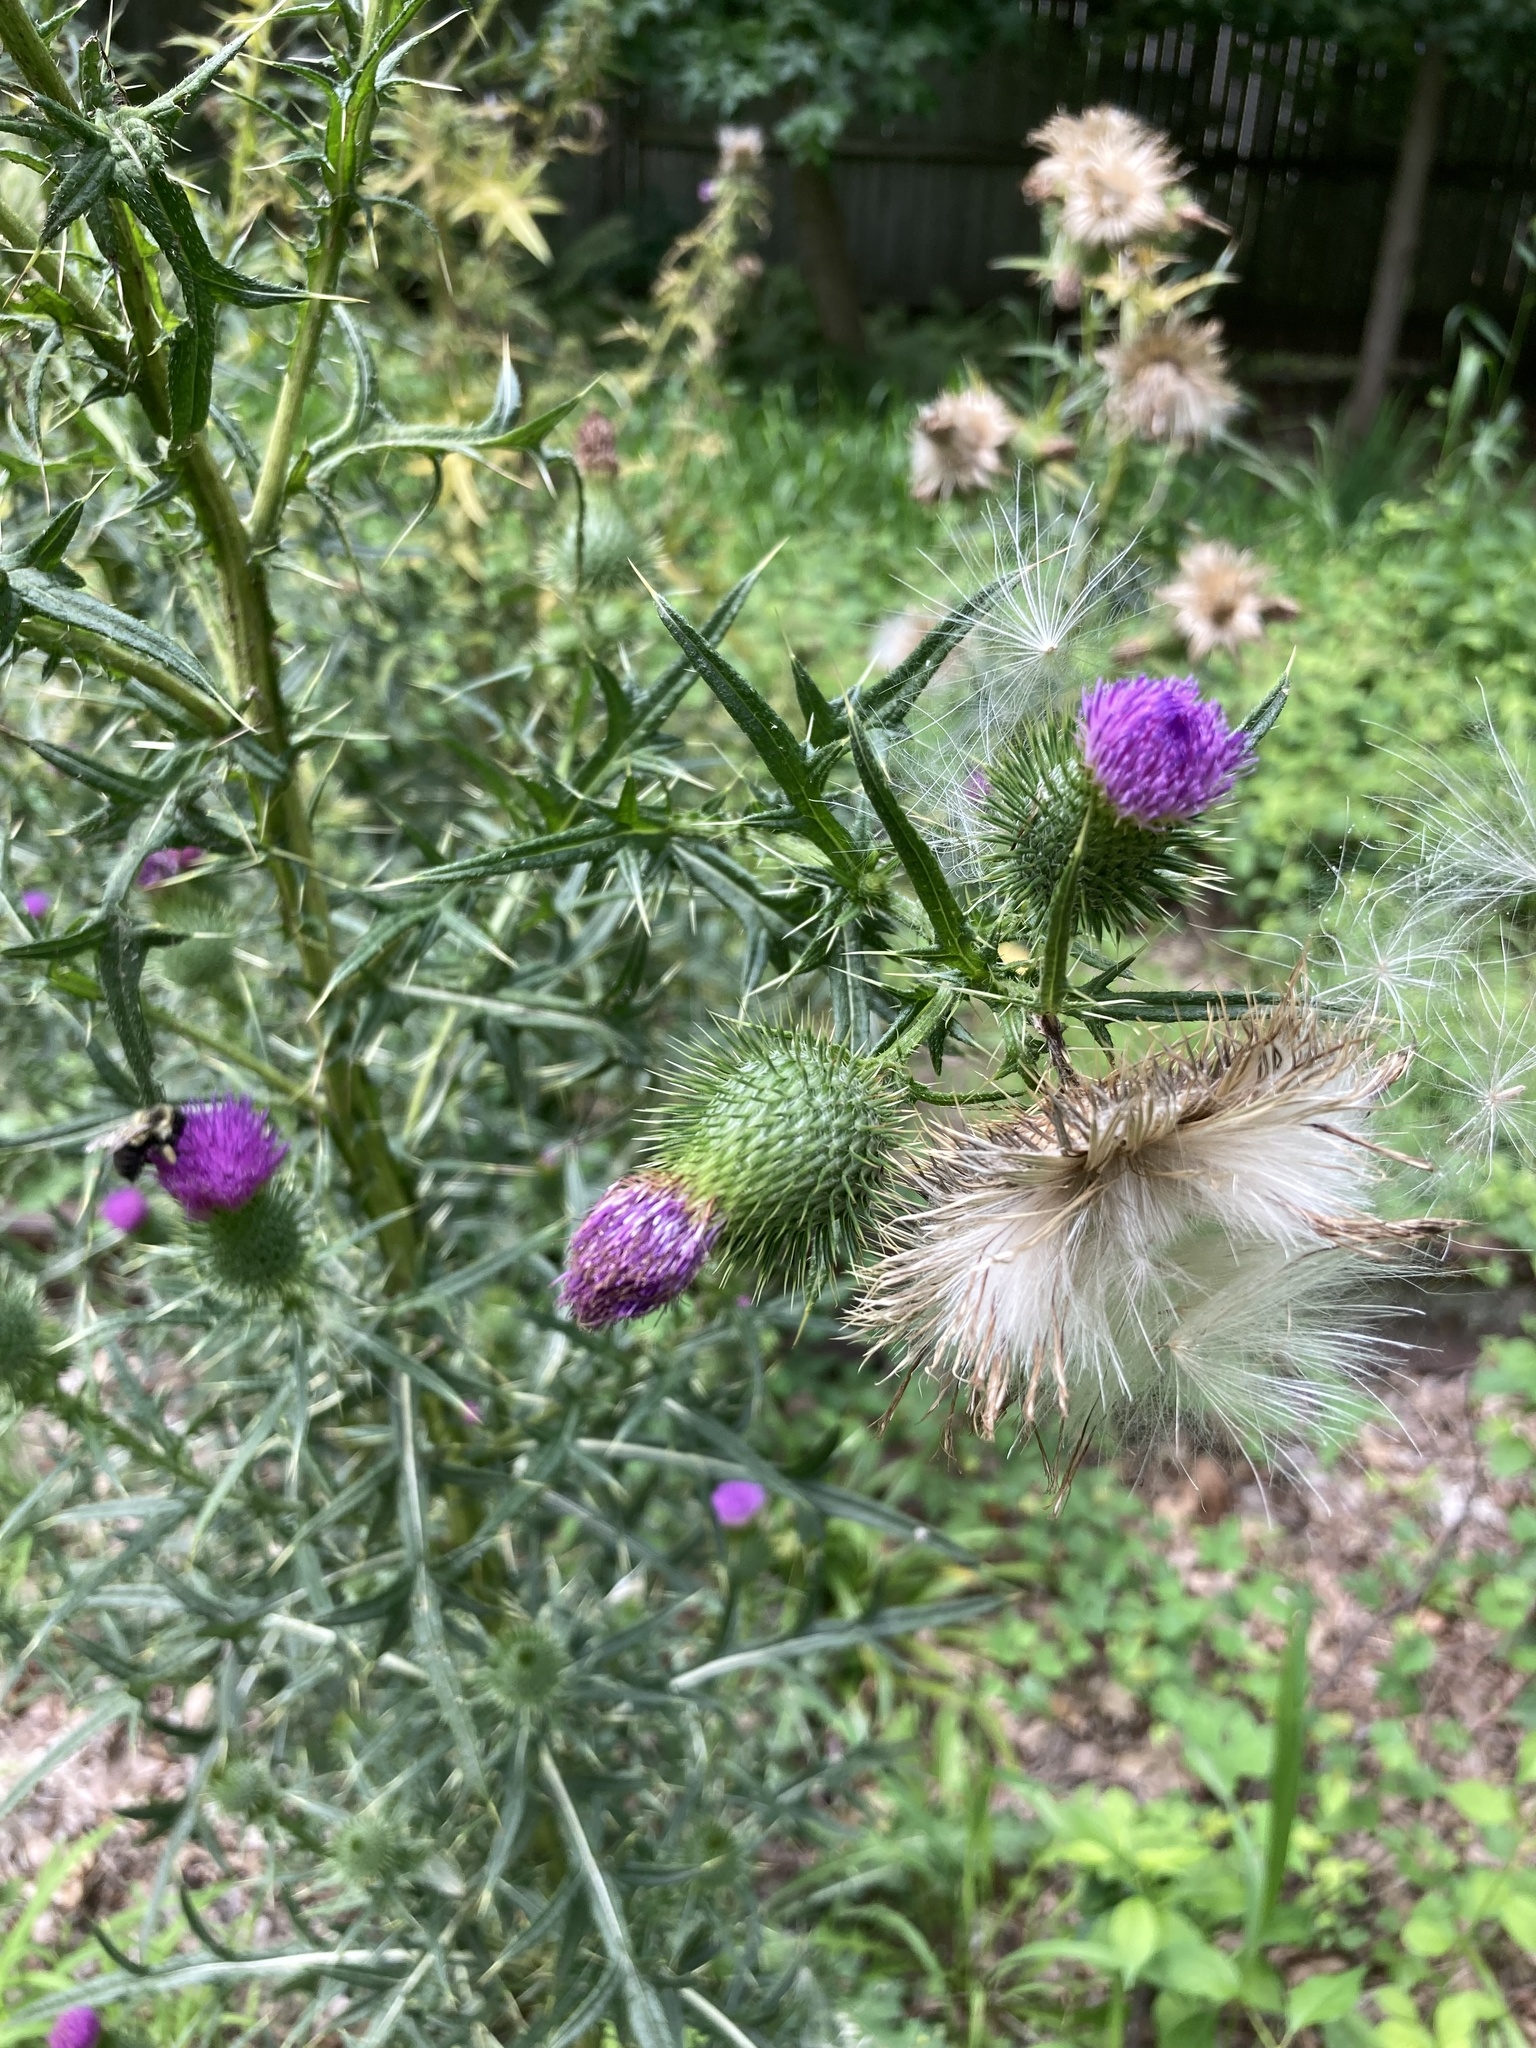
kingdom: Plantae
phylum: Tracheophyta
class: Magnoliopsida
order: Asterales
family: Asteraceae
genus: Cirsium
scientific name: Cirsium vulgare
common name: Bull thistle
